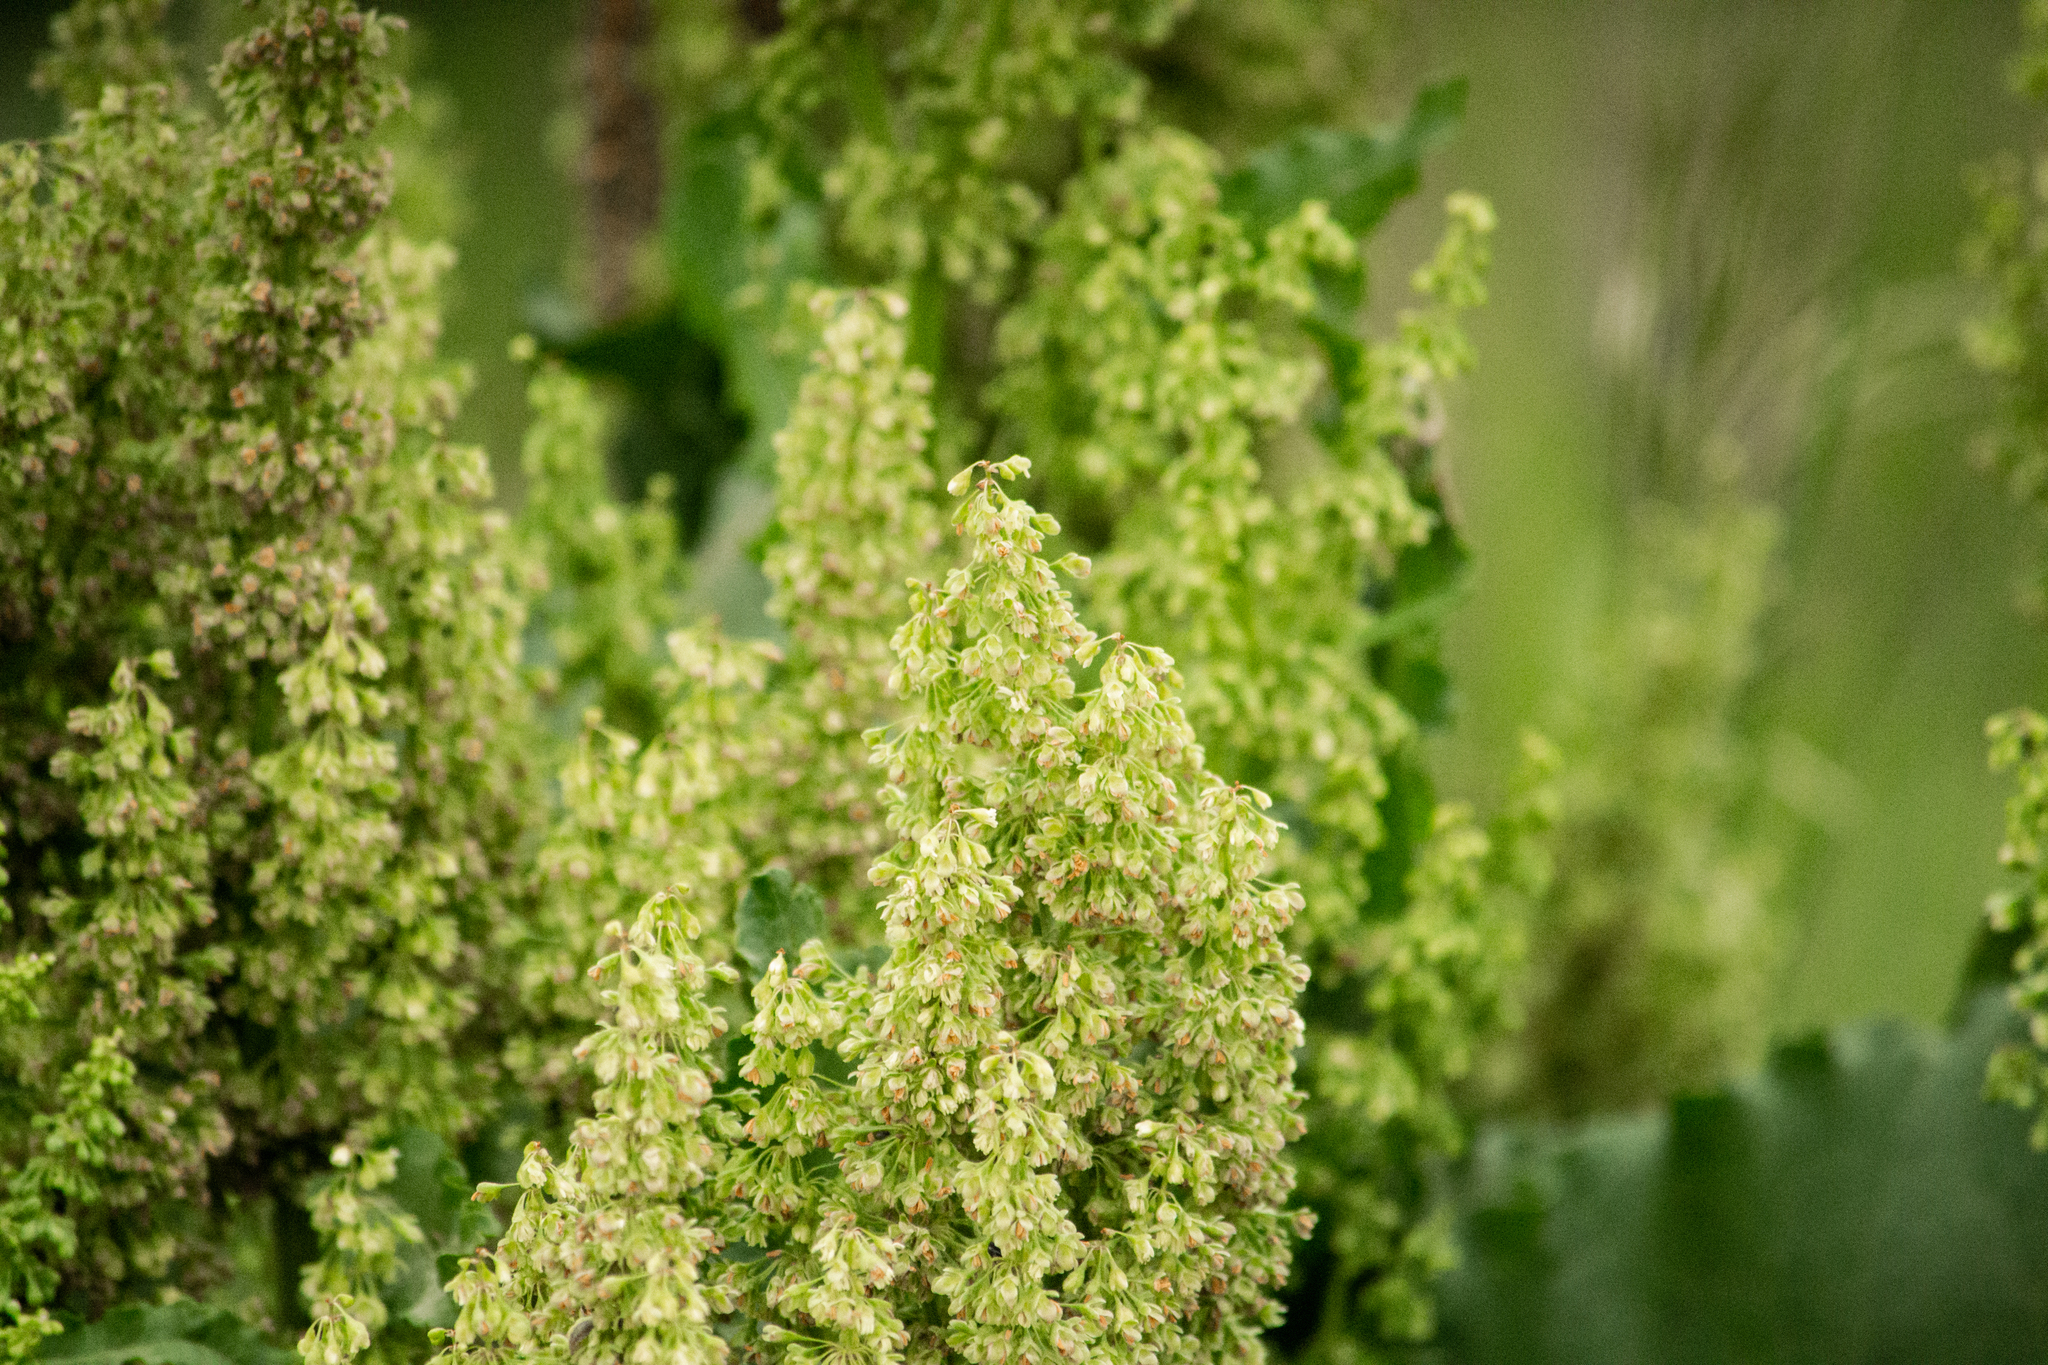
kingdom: Plantae
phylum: Tracheophyta
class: Magnoliopsida
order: Caryophyllales
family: Polygonaceae
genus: Rumex
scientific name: Rumex confertus
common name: Russian dock
